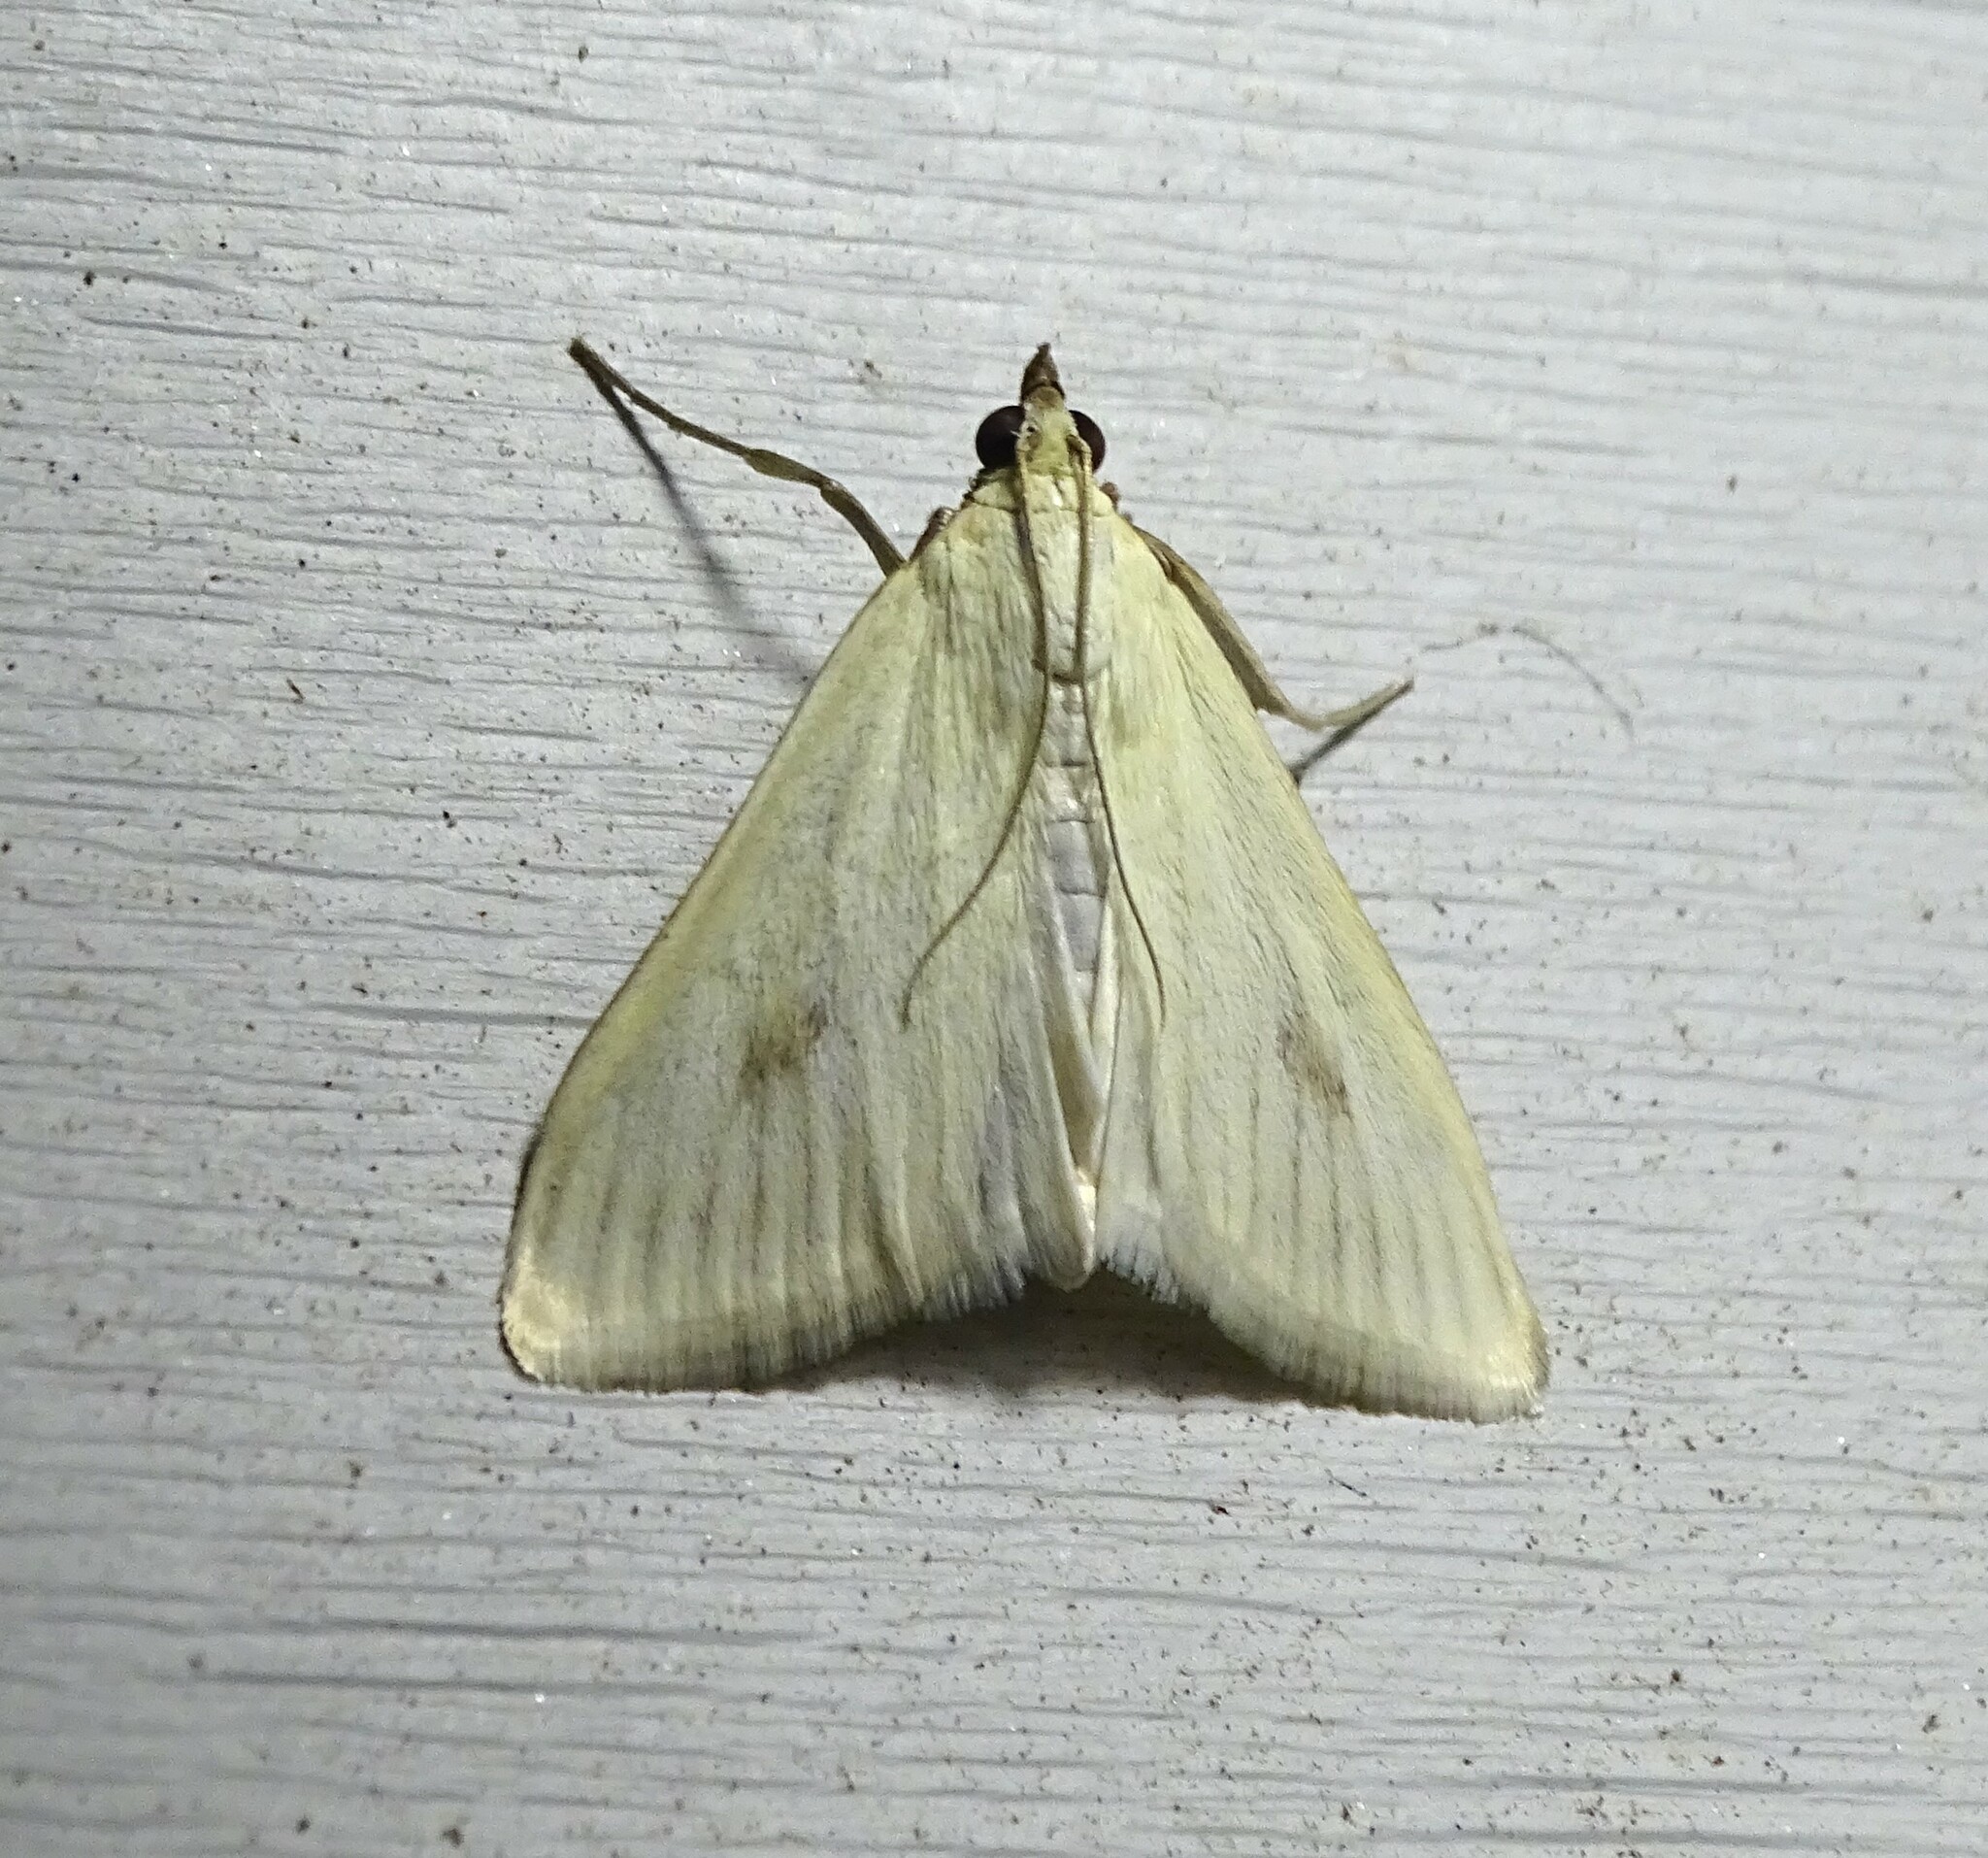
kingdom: Animalia
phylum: Arthropoda
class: Insecta
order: Lepidoptera
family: Crambidae
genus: Sitochroa
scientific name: Sitochroa palealis
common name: Greenish-yellow sitochroa moth
